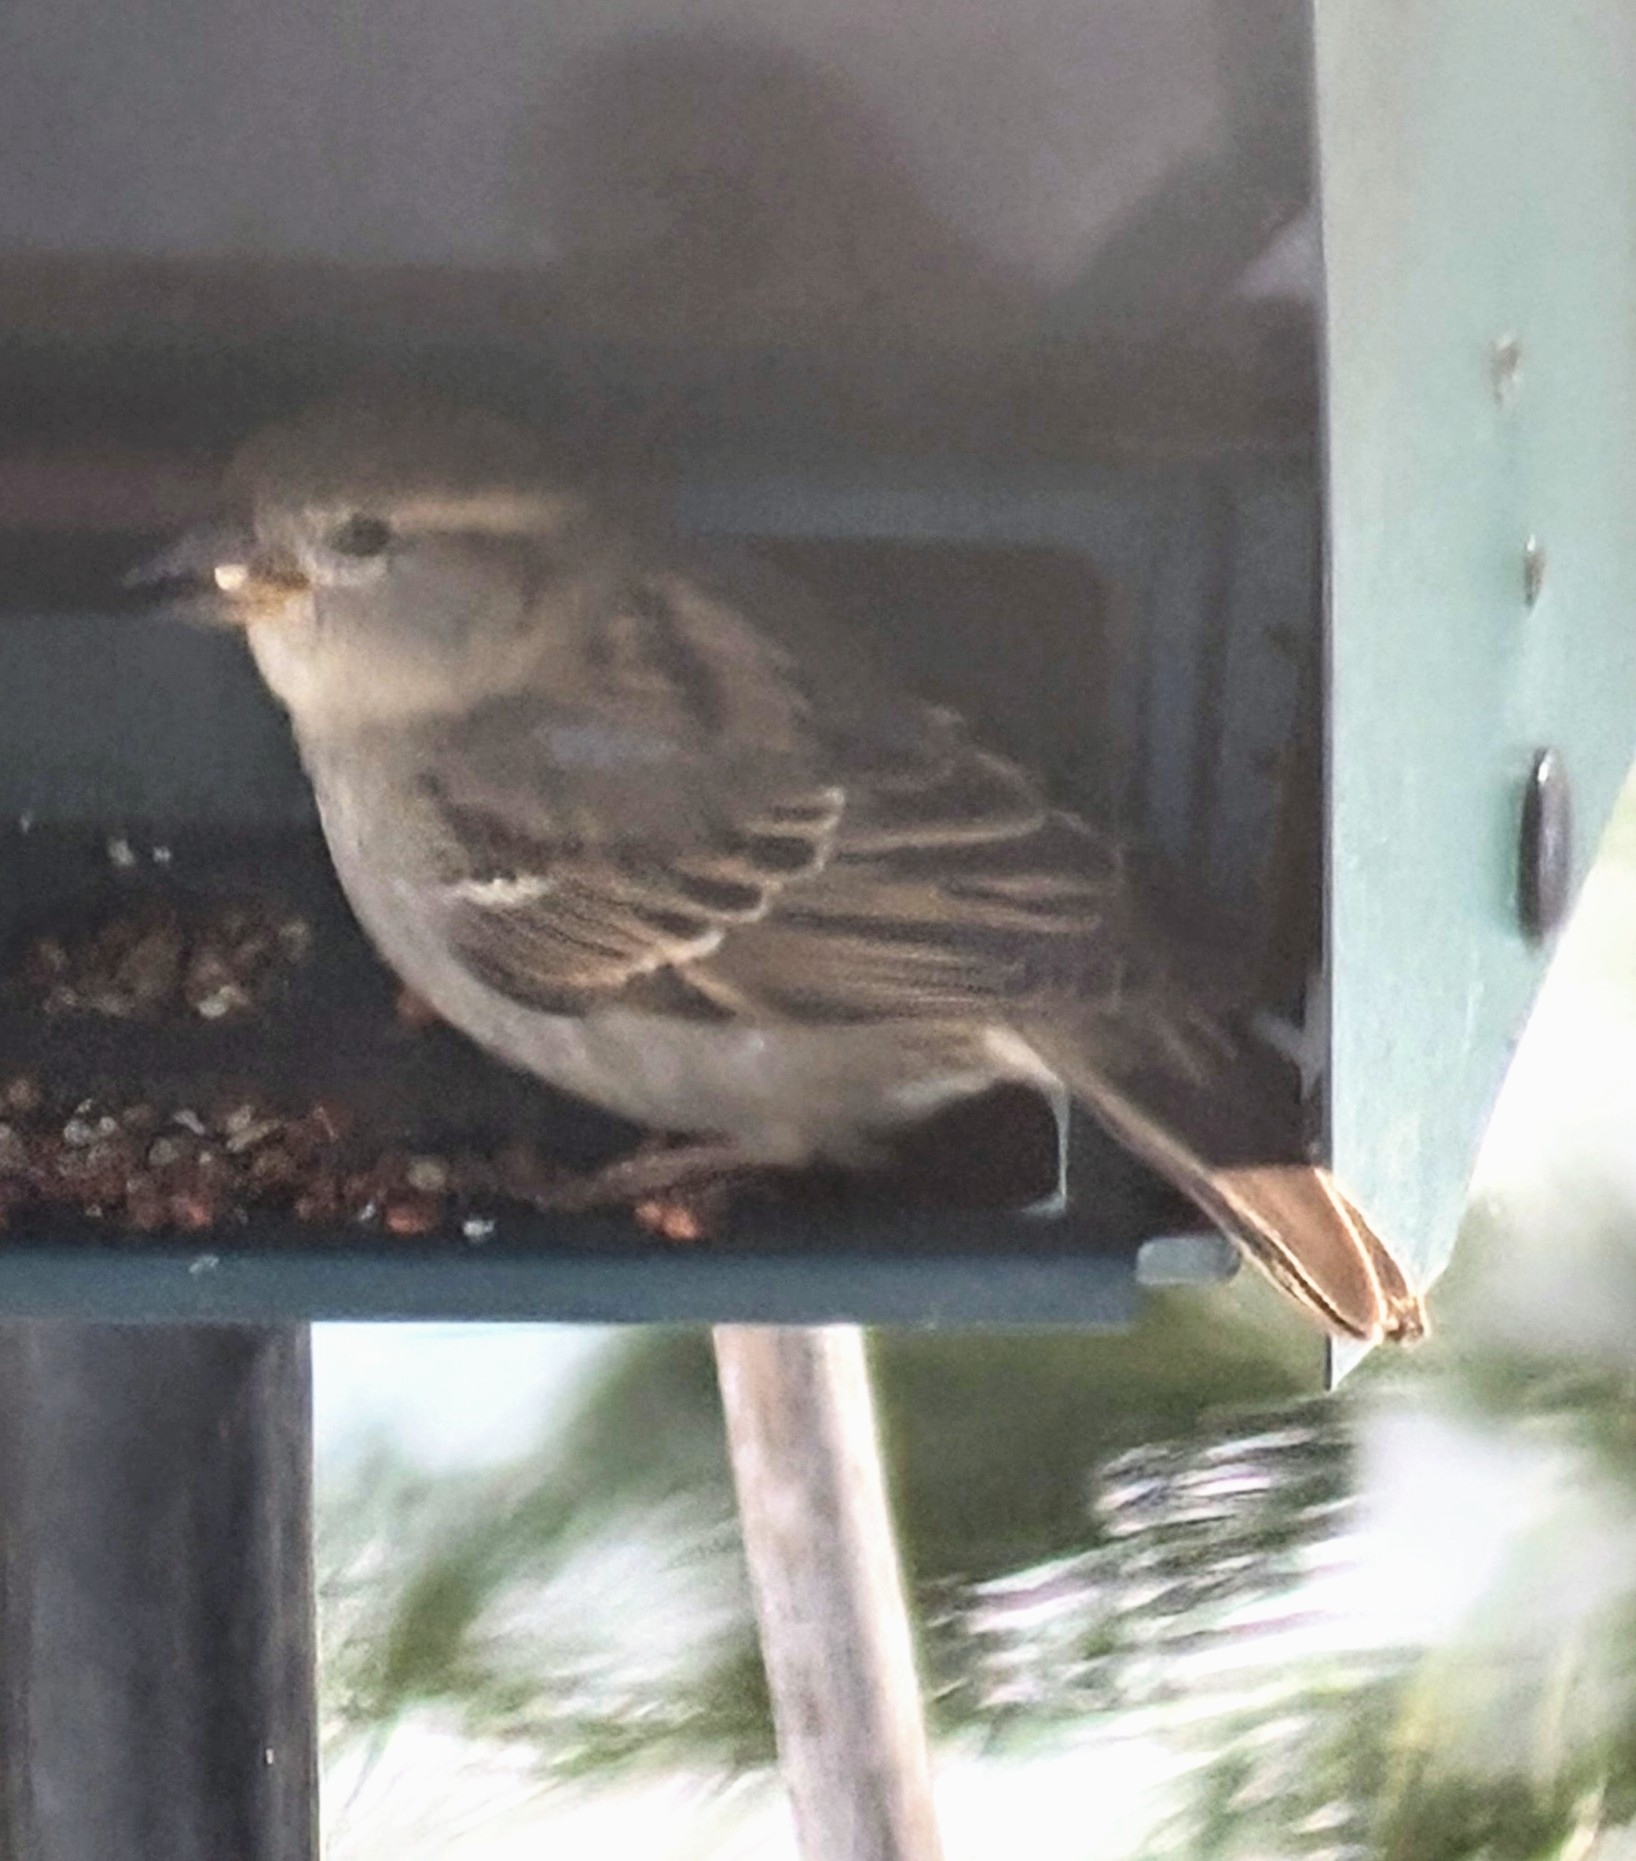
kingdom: Animalia
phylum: Chordata
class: Aves
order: Passeriformes
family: Passeridae
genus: Passer
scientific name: Passer domesticus
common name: House sparrow
